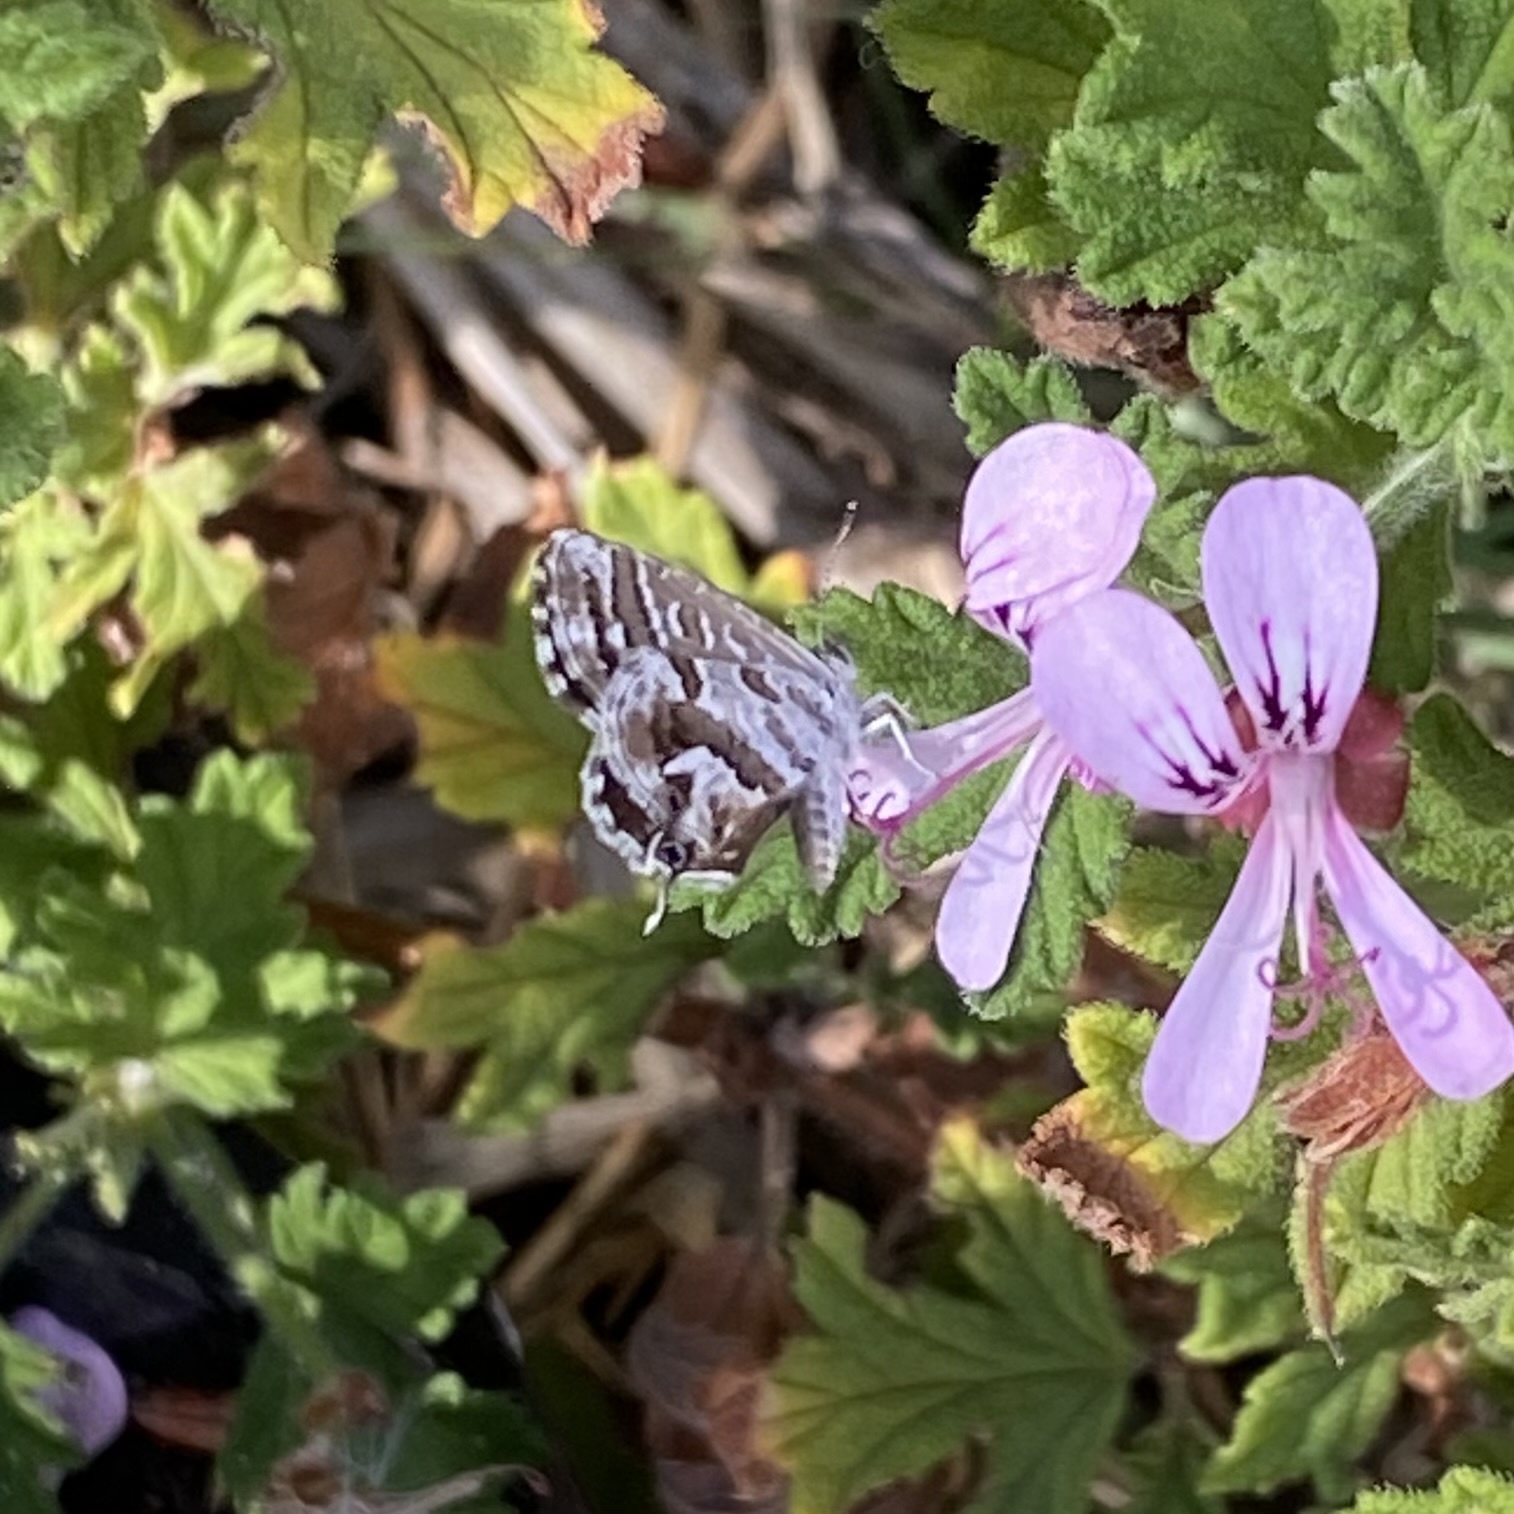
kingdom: Animalia
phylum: Arthropoda
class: Insecta
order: Lepidoptera
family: Lycaenidae
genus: Cacyreus
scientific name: Cacyreus marshalli
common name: Geranium bronze
